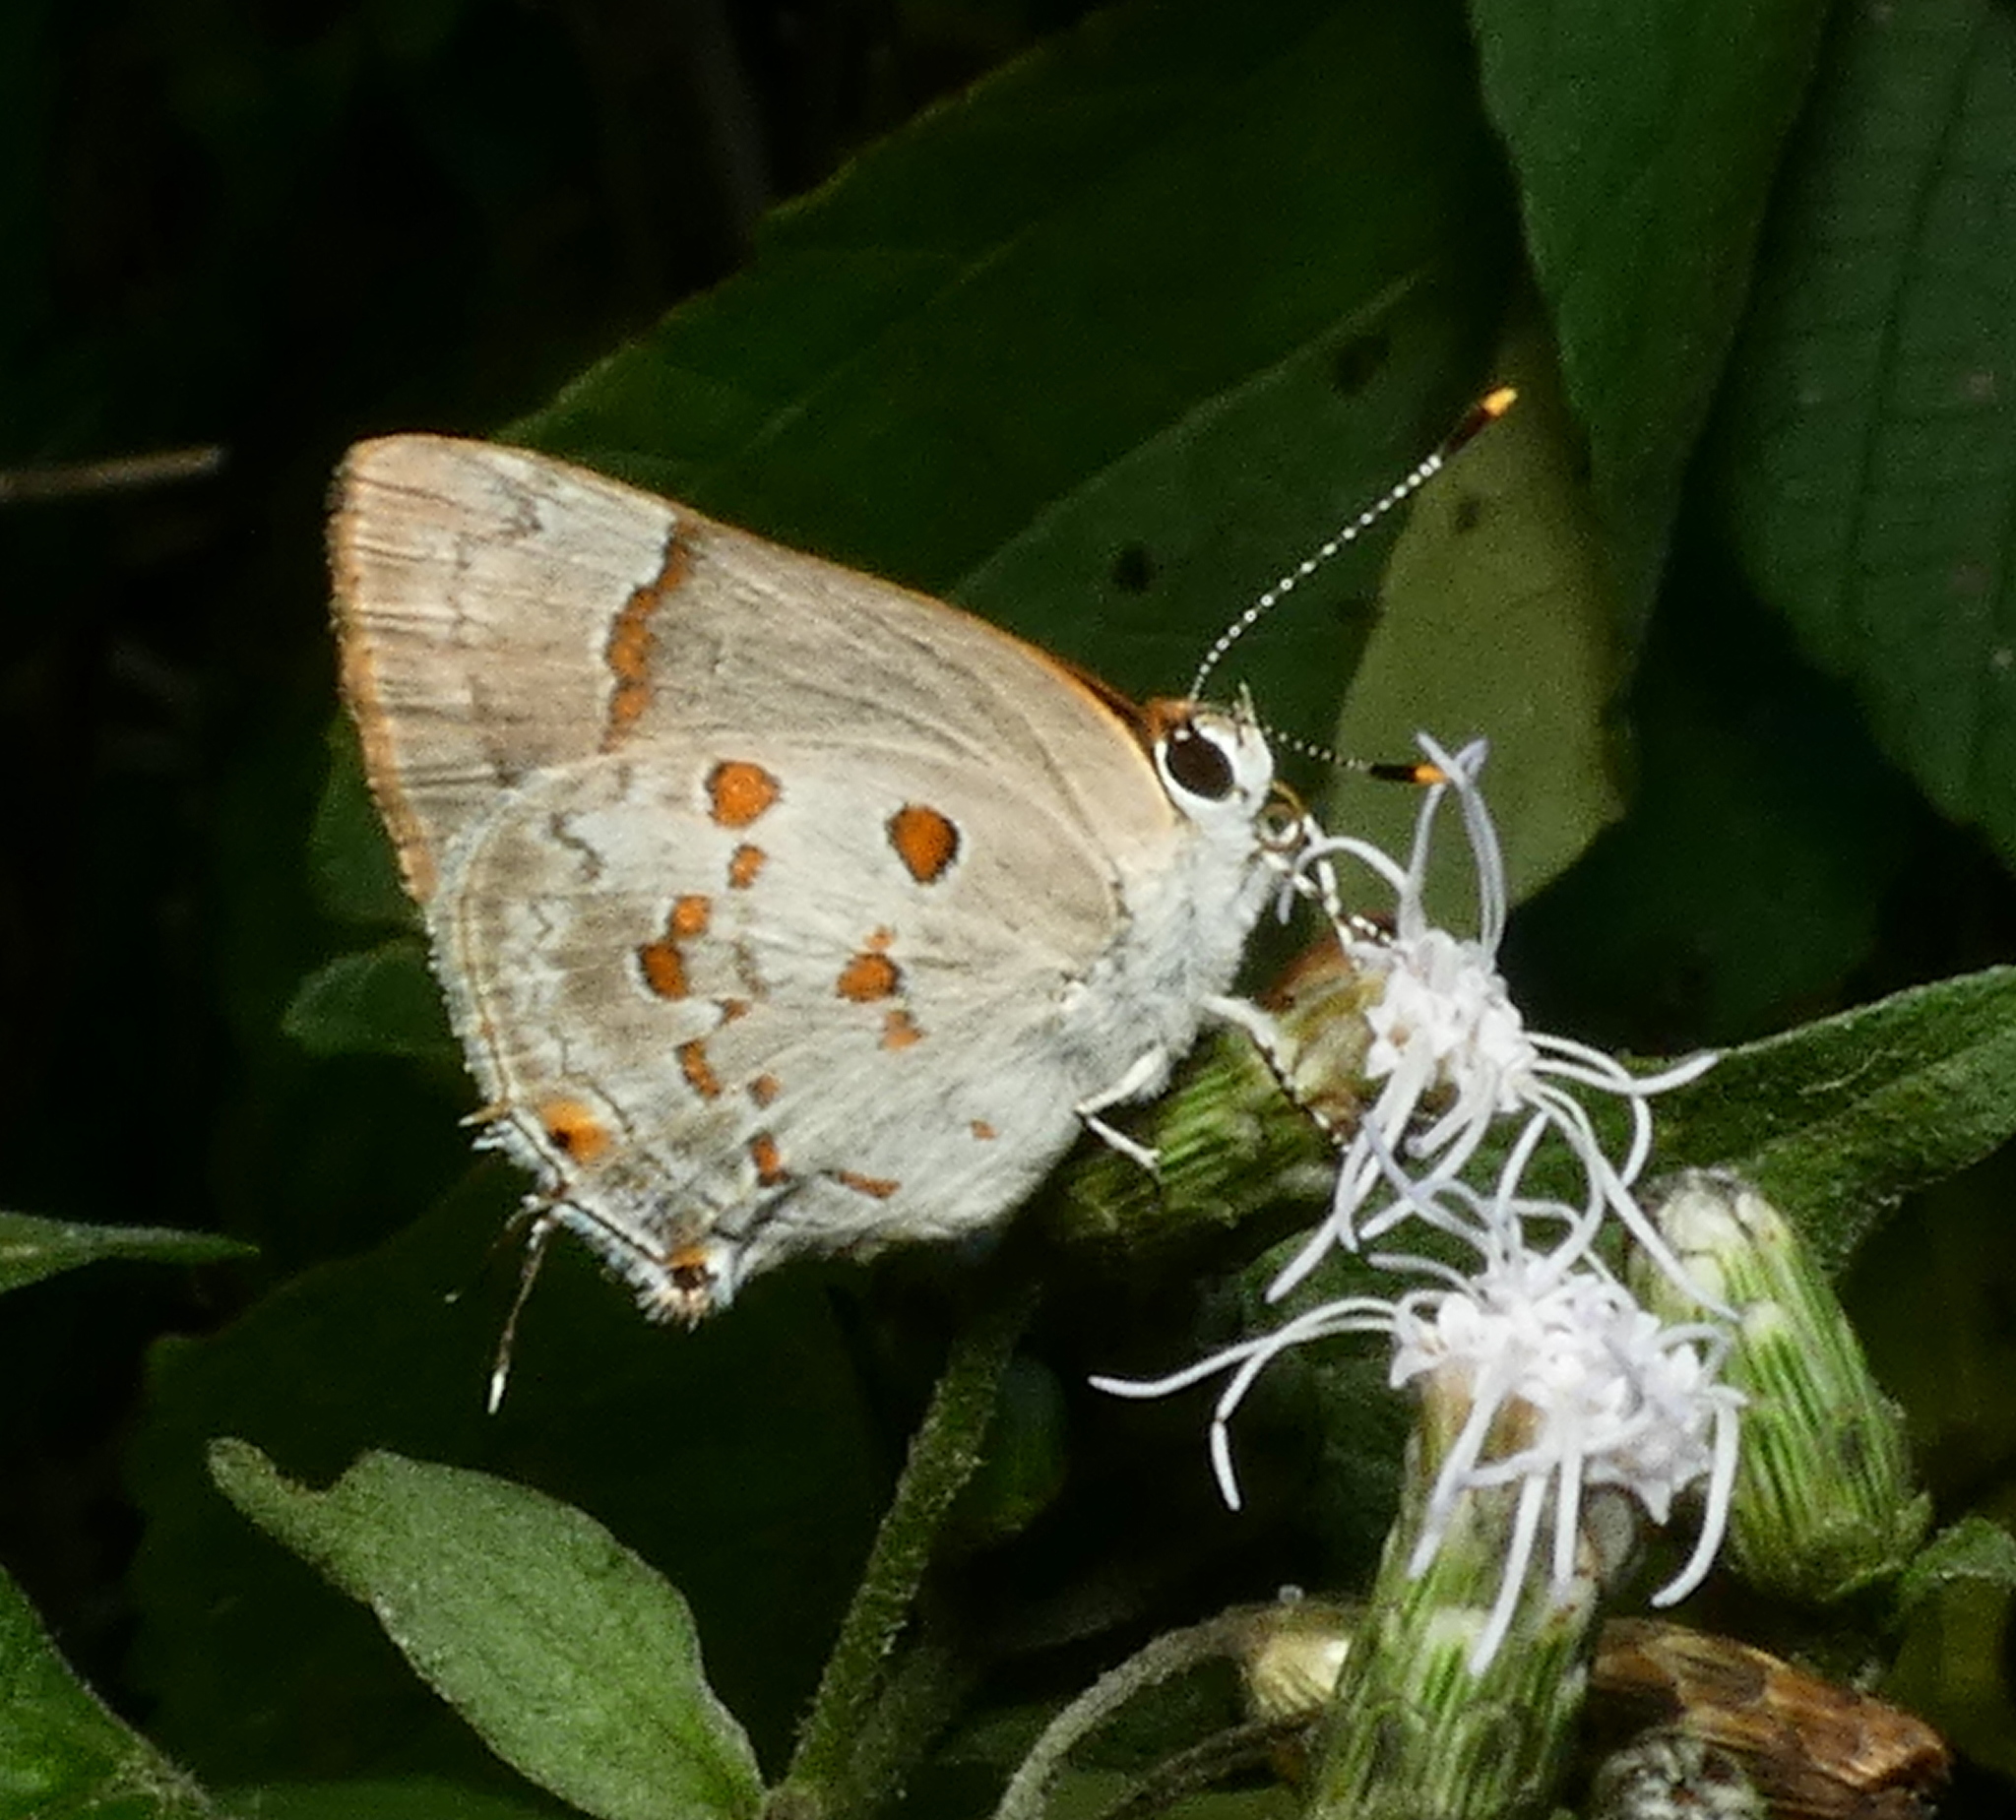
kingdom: Animalia
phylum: Arthropoda
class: Insecta
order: Lepidoptera
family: Lycaenidae
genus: Tmolus
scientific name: Tmolus echion
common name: Red-spotted hairstreak
